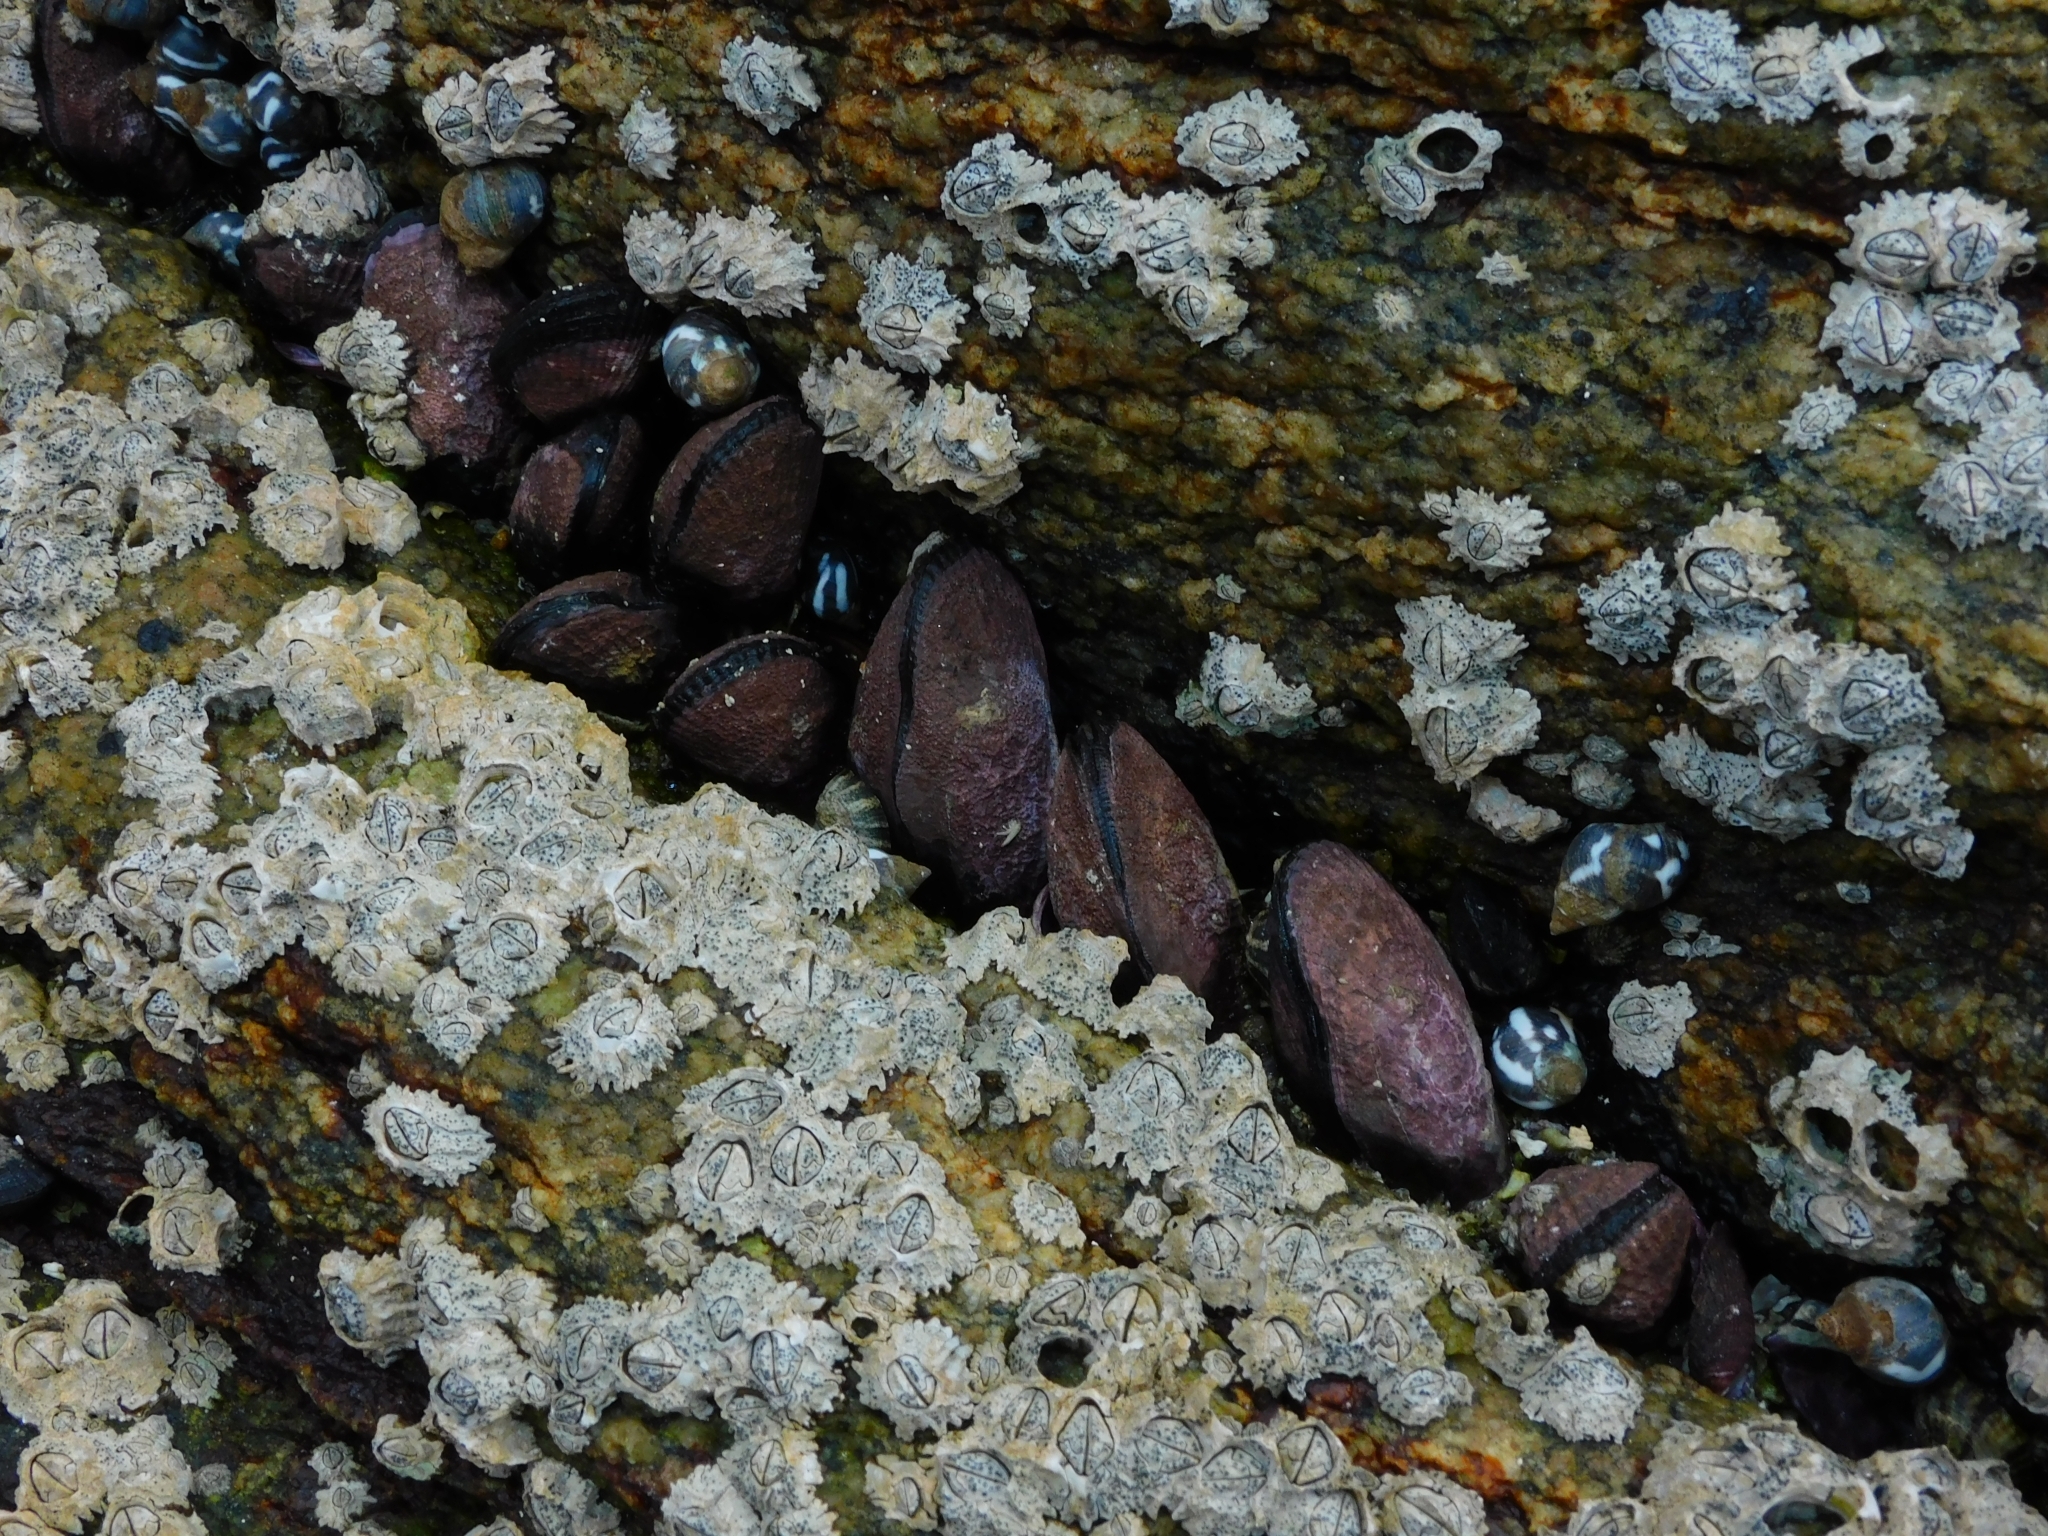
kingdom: Animalia
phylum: Mollusca
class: Bivalvia
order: Mytilida
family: Mytilidae
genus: Perumytilus
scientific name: Perumytilus purpuratus
